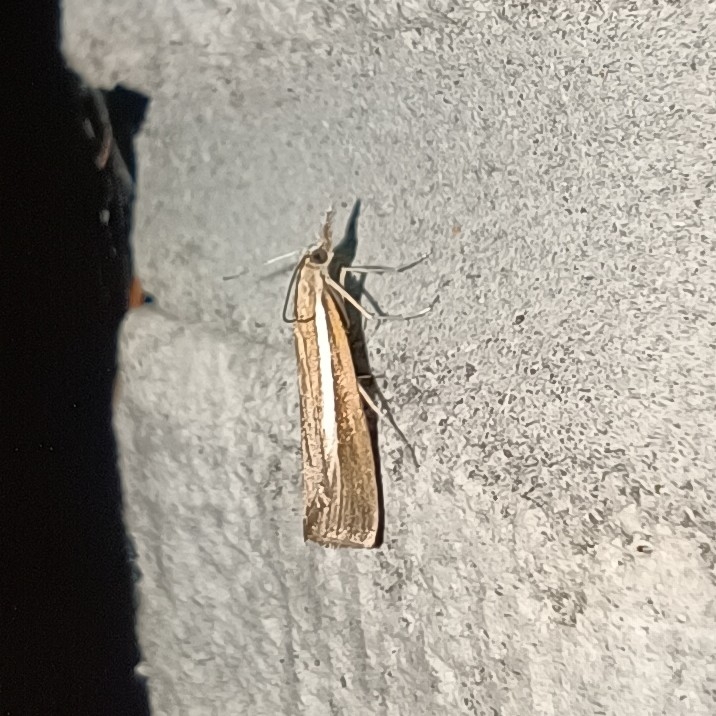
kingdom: Animalia
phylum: Arthropoda
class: Insecta
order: Lepidoptera
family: Crambidae
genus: Agriphila
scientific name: Agriphila tristellus
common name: Common grass-veneer
